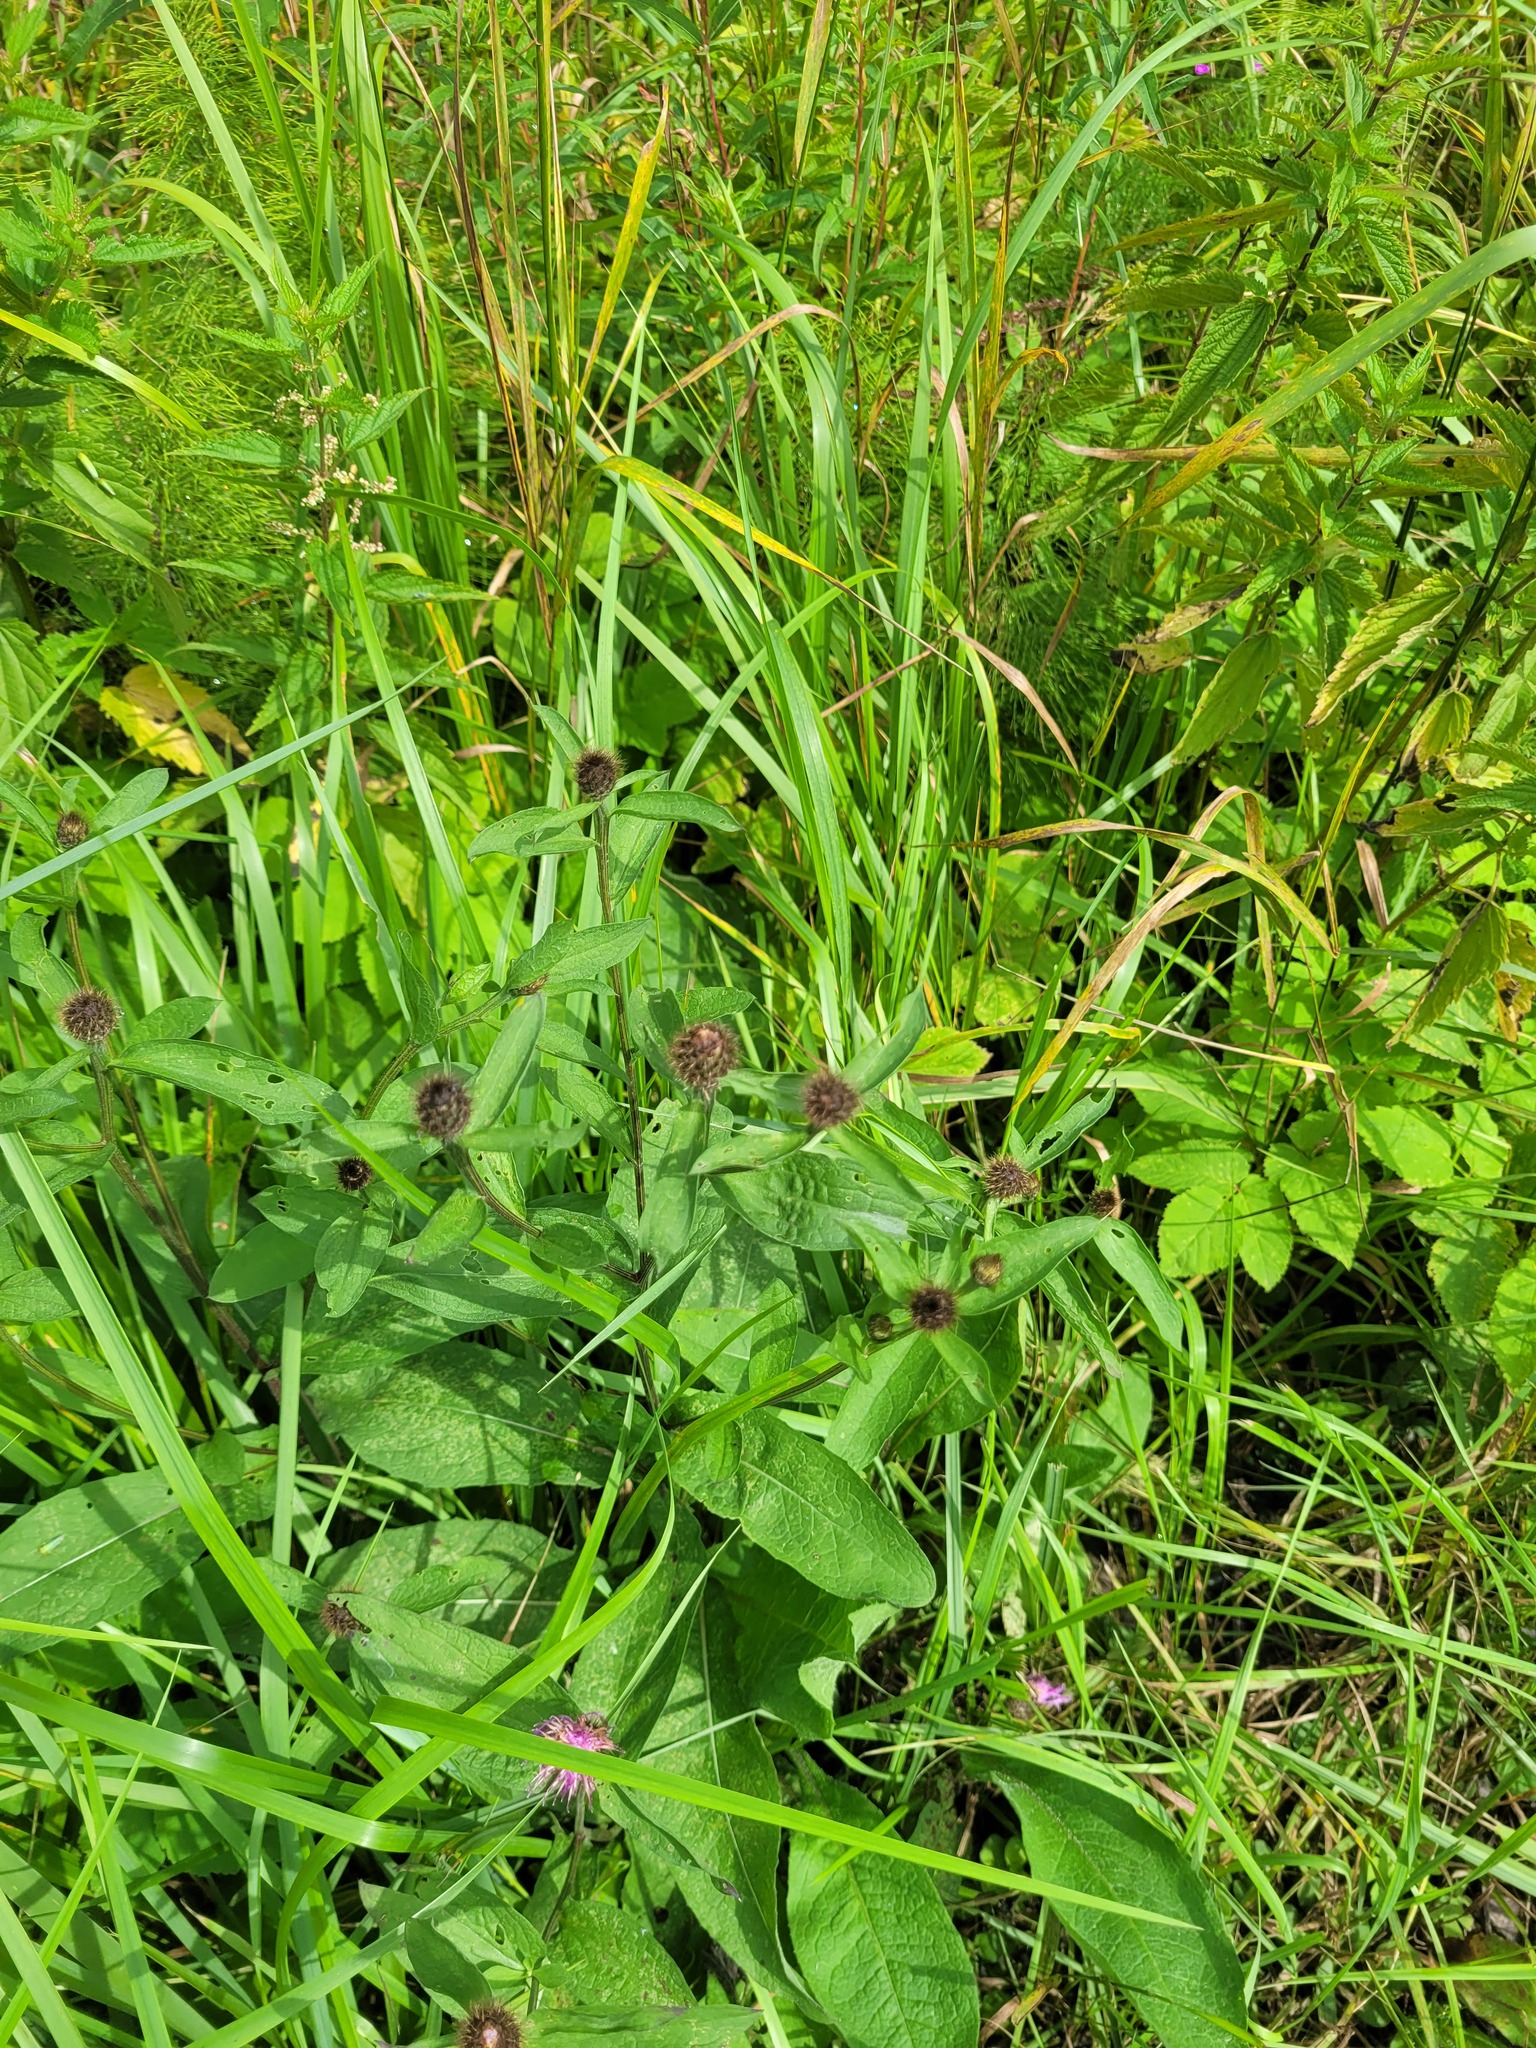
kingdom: Plantae
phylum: Tracheophyta
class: Magnoliopsida
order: Asterales
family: Asteraceae
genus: Centaurea
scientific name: Centaurea pseudophrygia
